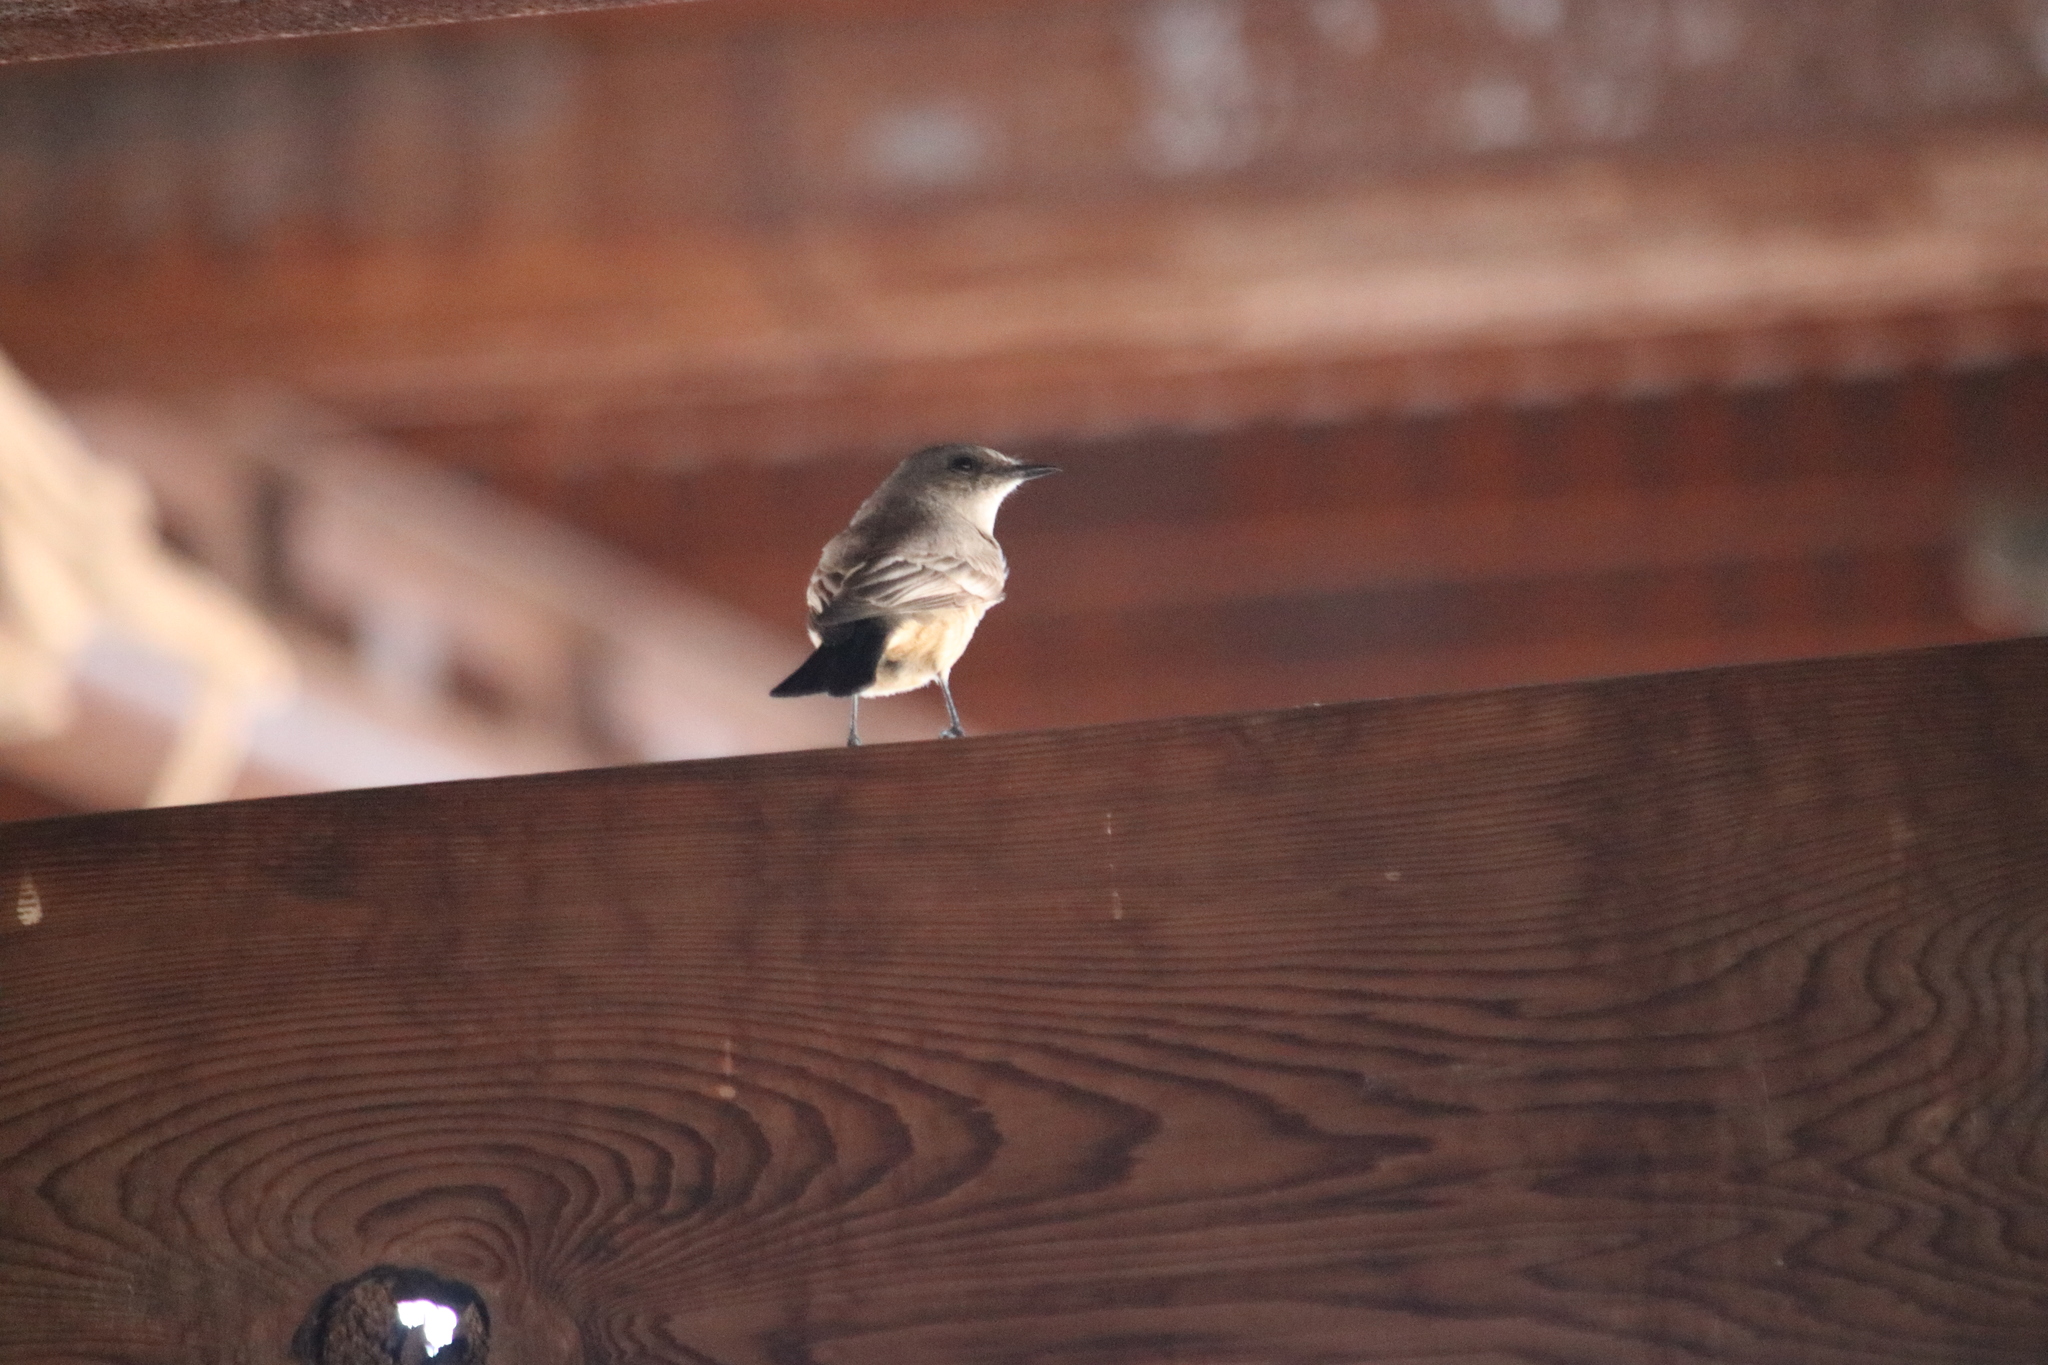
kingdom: Animalia
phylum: Chordata
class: Aves
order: Passeriformes
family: Tyrannidae
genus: Sayornis
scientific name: Sayornis saya
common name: Say's phoebe
